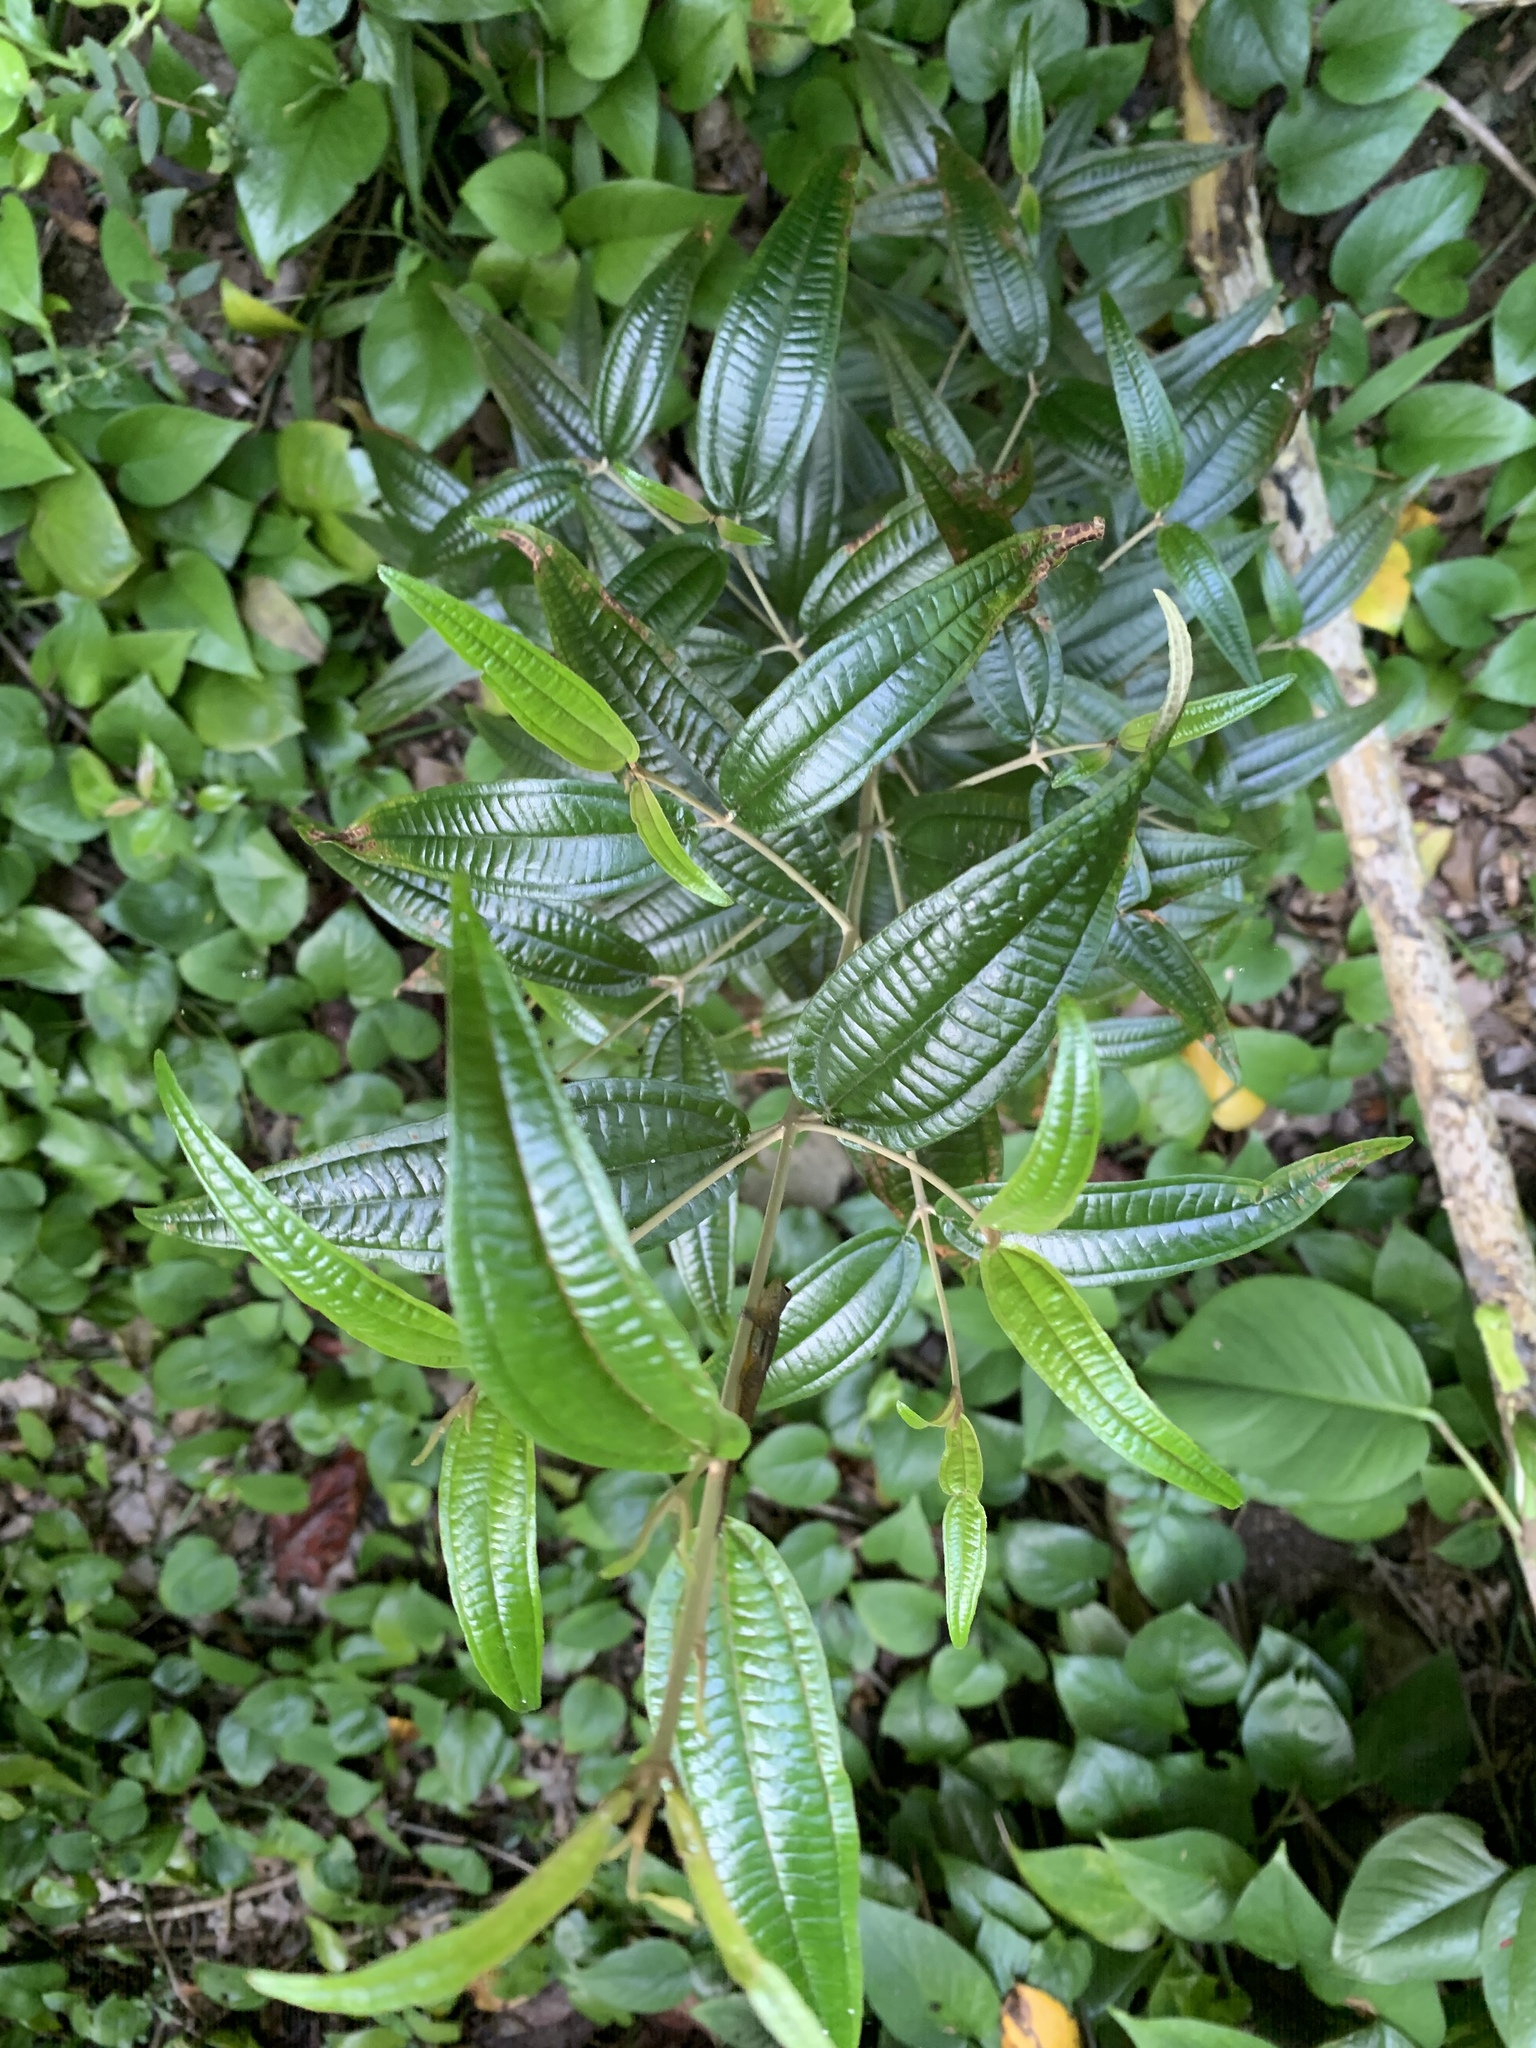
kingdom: Plantae
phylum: Tracheophyta
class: Magnoliopsida
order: Myrtales
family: Melastomataceae
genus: Miconia
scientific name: Miconia elaeagnoides
